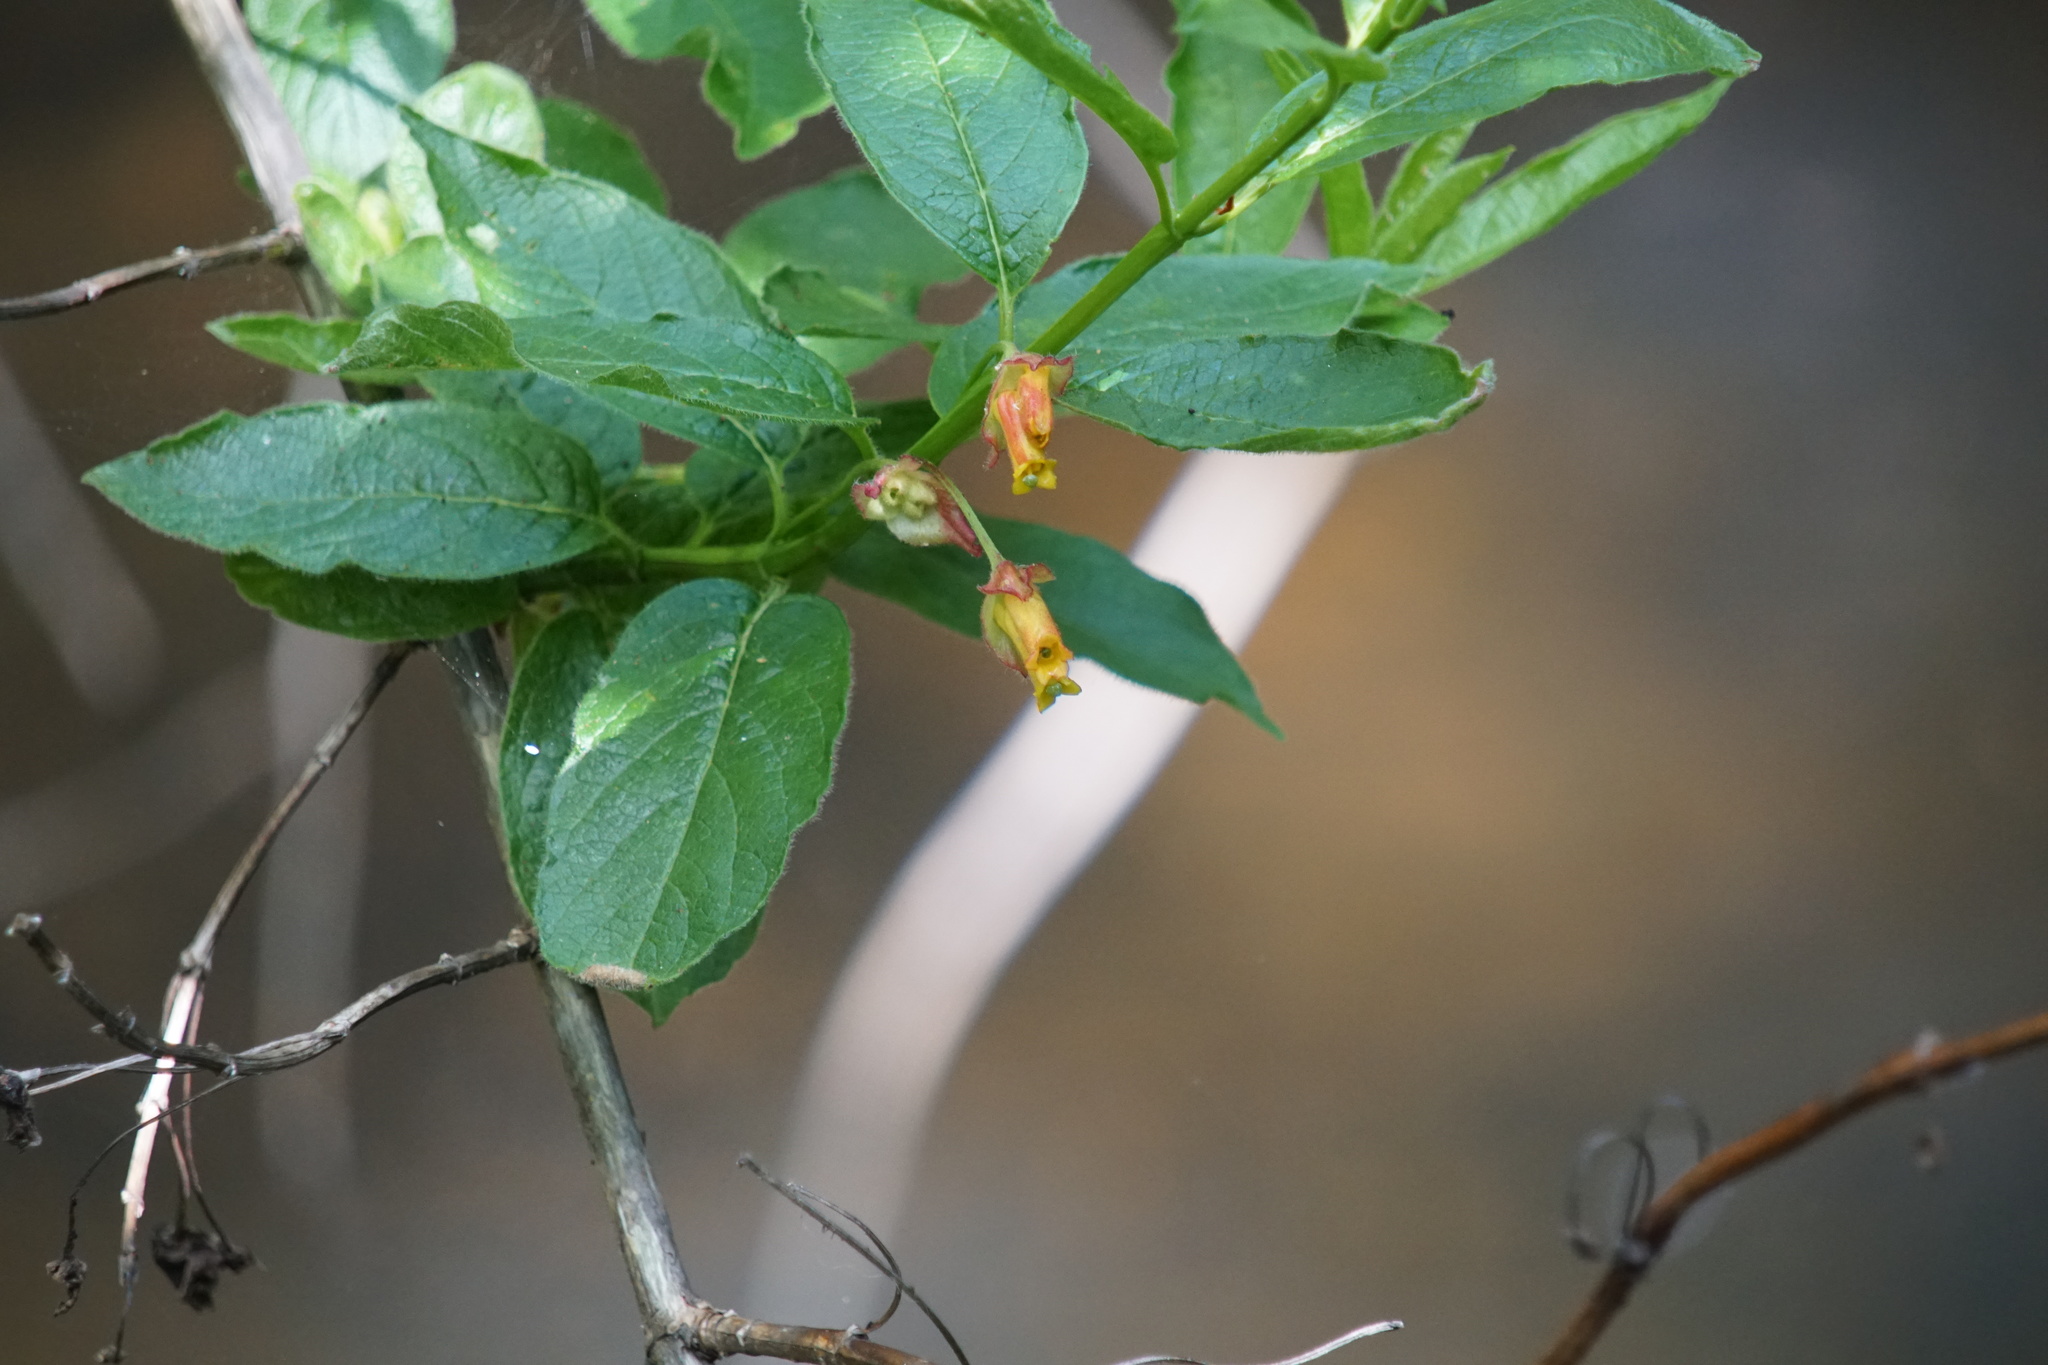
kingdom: Plantae
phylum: Tracheophyta
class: Magnoliopsida
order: Dipsacales
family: Caprifoliaceae
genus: Lonicera
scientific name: Lonicera involucrata
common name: Californian honeysuckle
